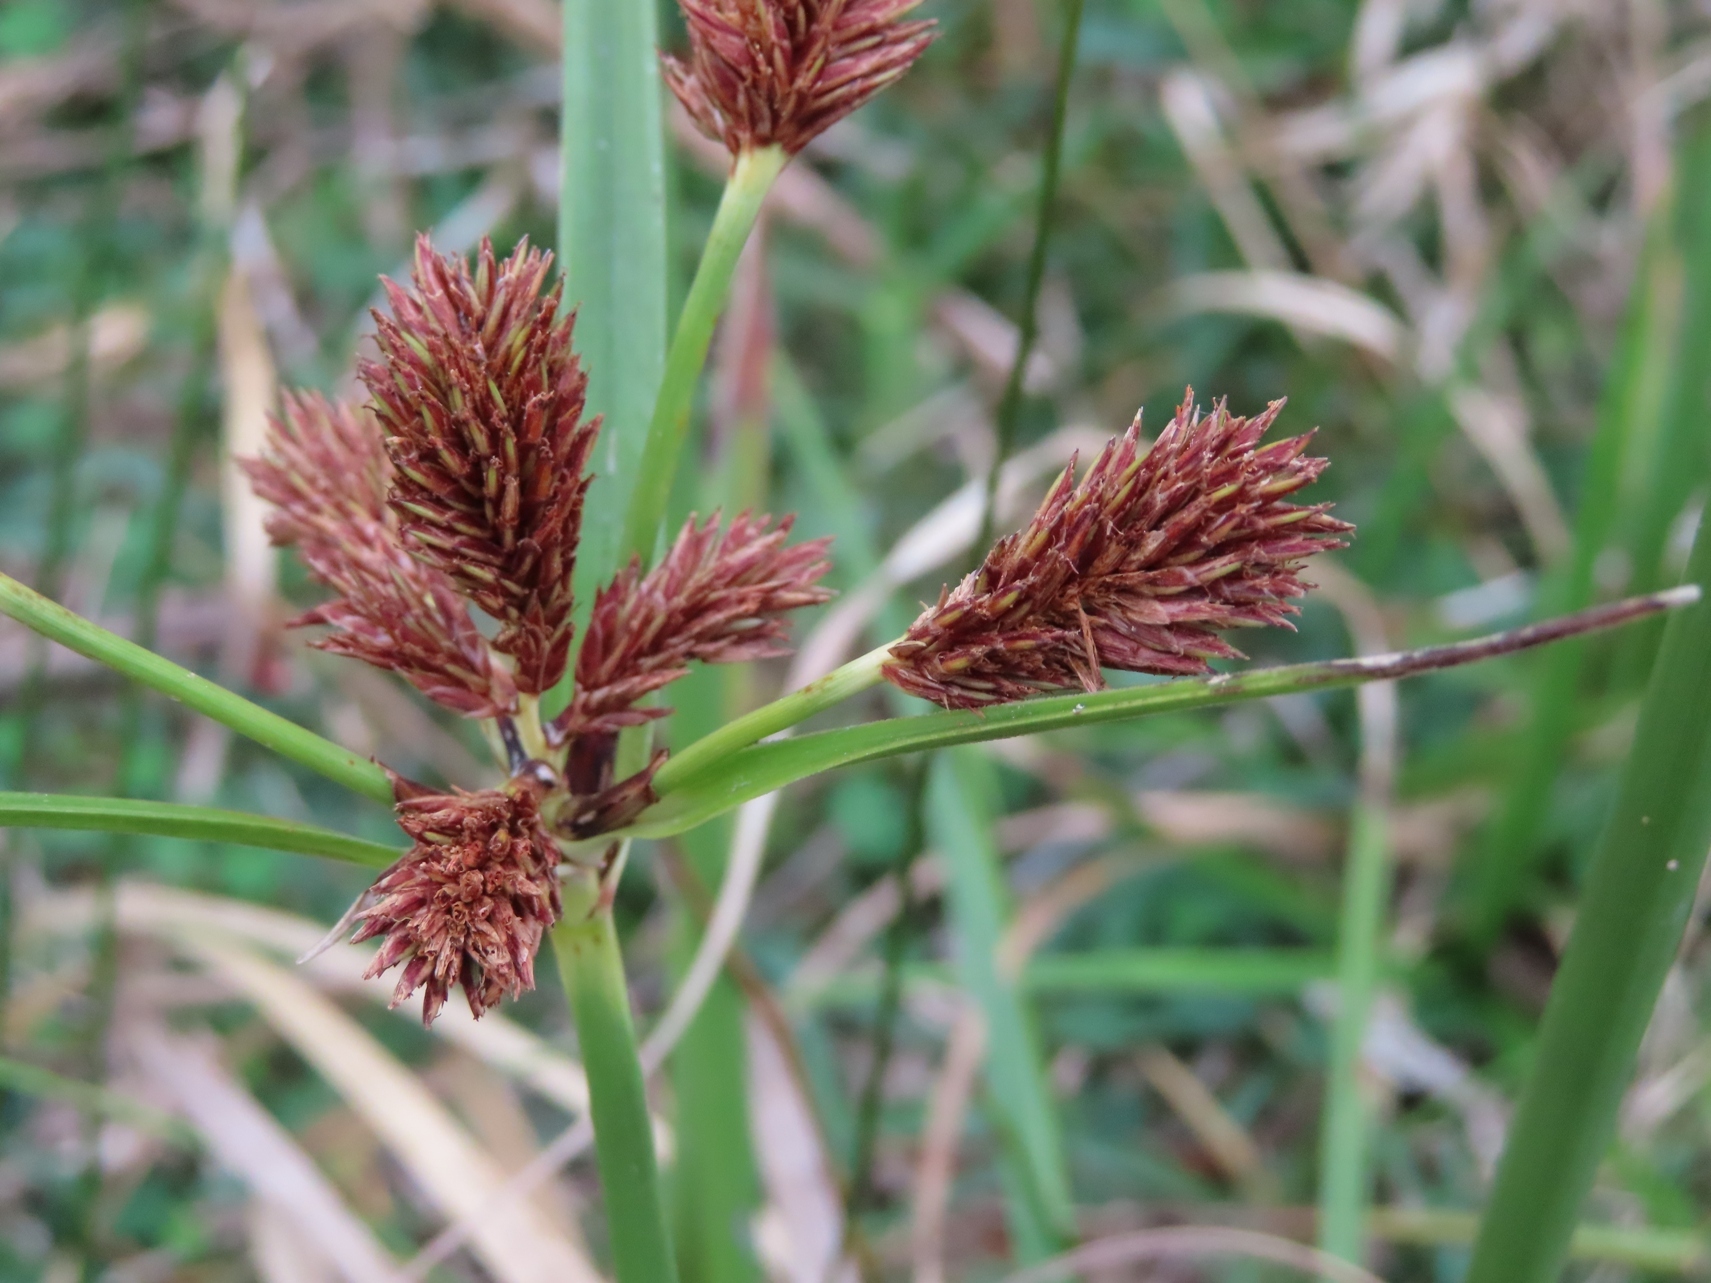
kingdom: Plantae
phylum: Tracheophyta
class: Liliopsida
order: Poales
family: Cyperaceae
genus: Cyperus
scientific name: Cyperus thunbergii
